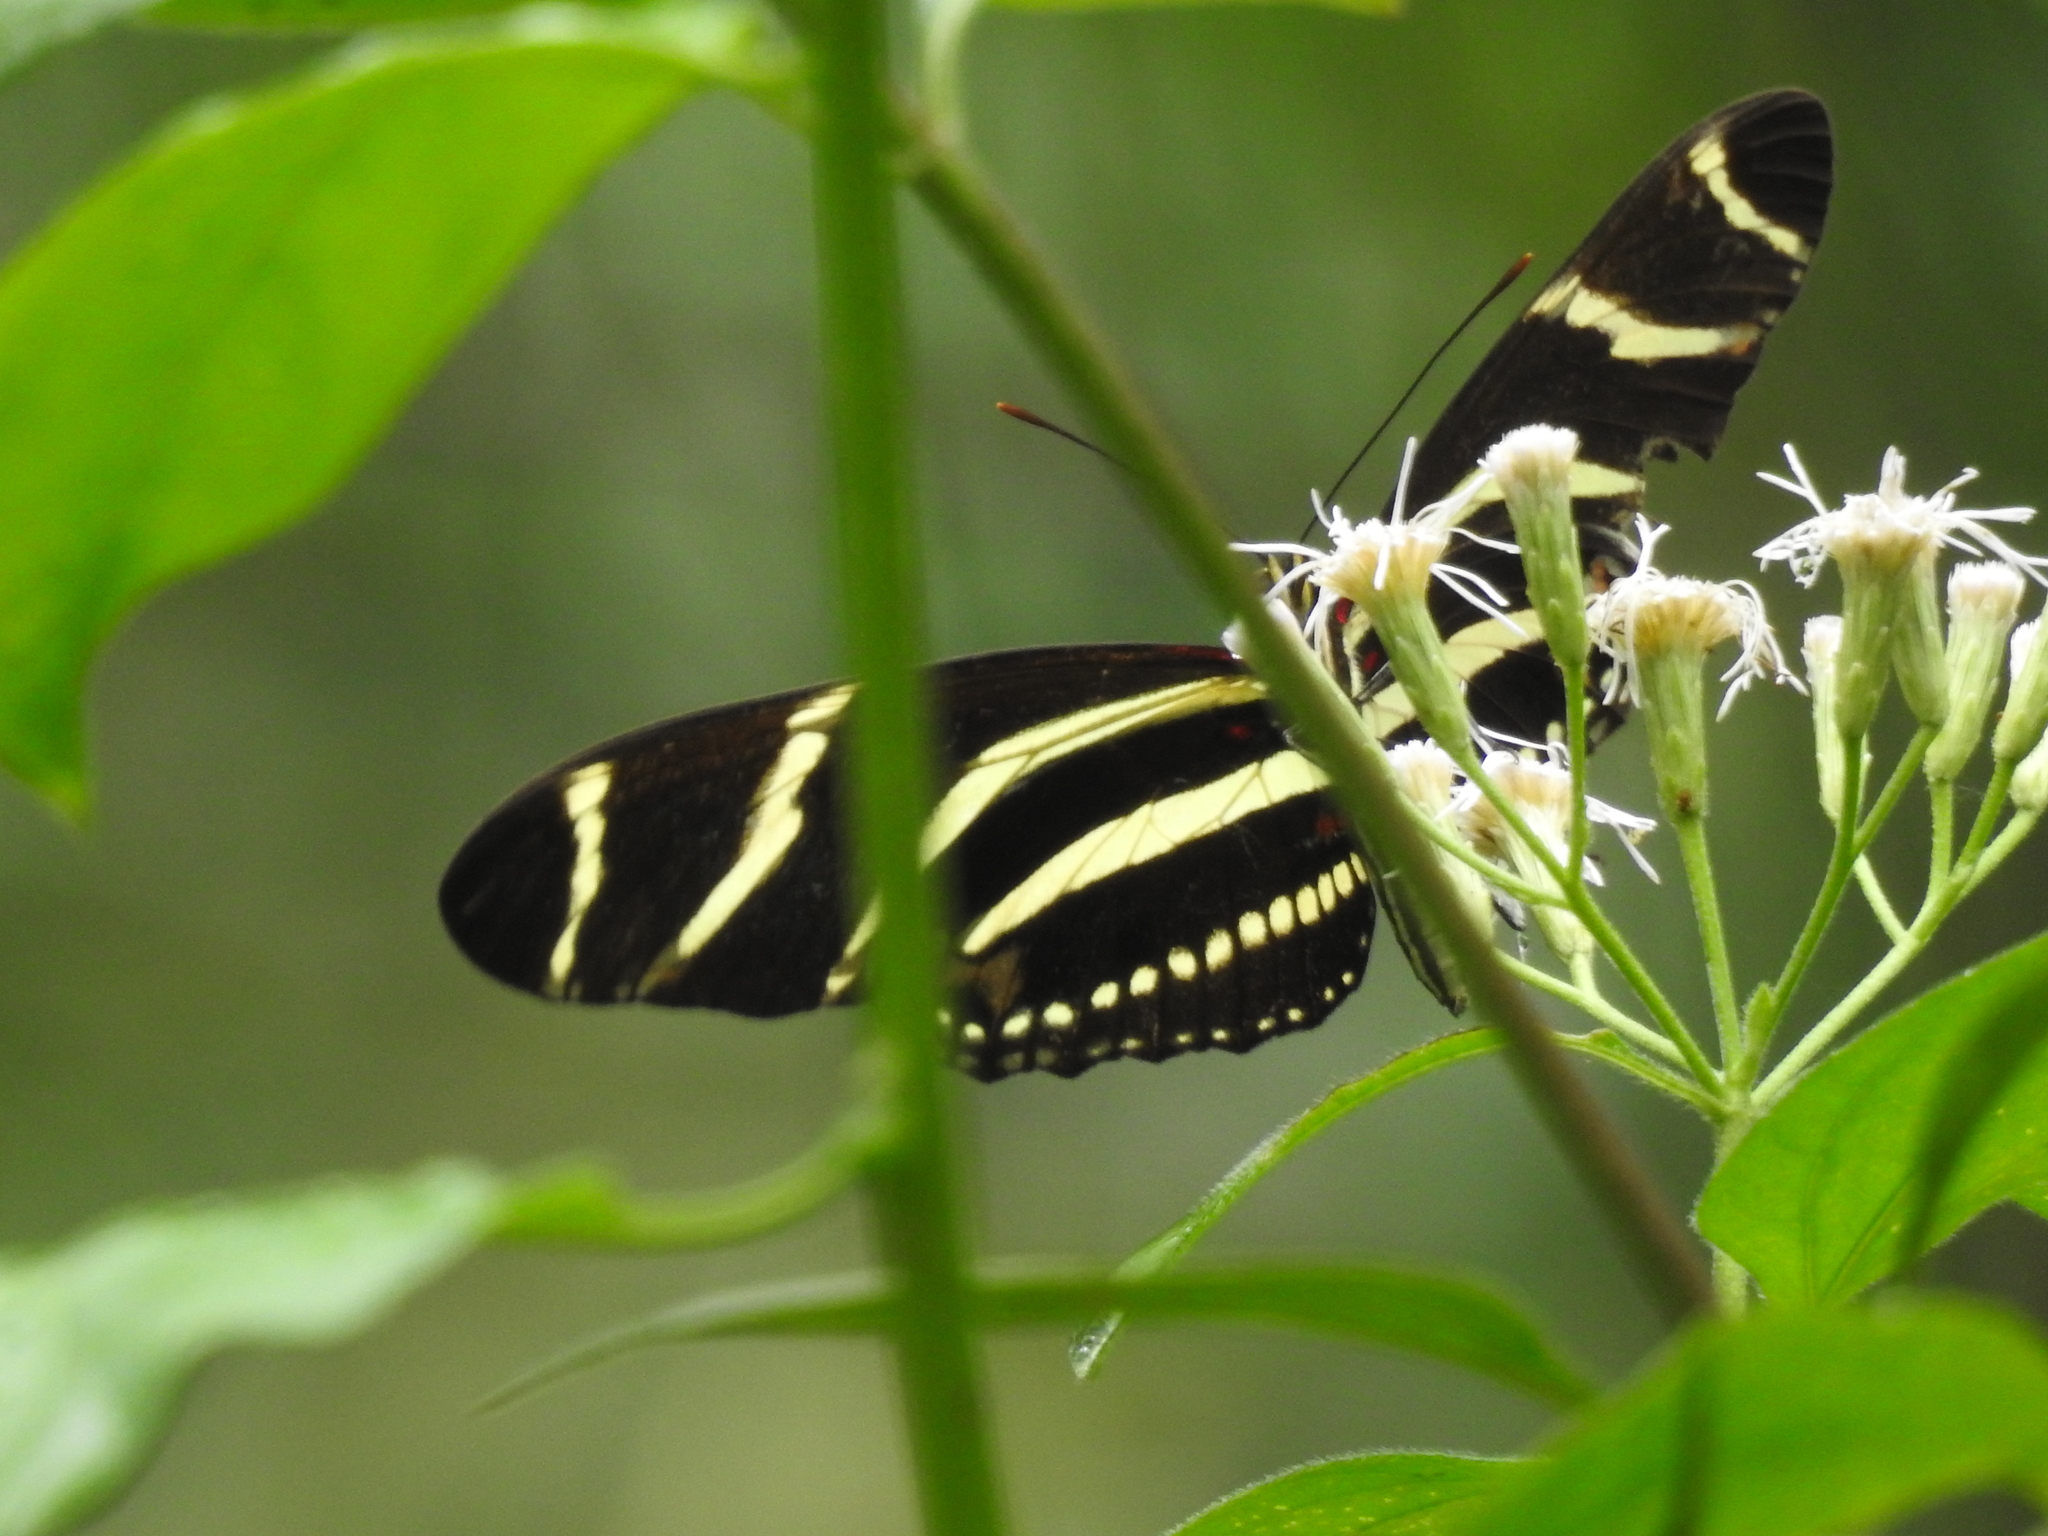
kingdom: Animalia
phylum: Arthropoda
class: Insecta
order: Lepidoptera
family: Nymphalidae
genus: Heliconius
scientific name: Heliconius charithonia
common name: Zebra long wing
